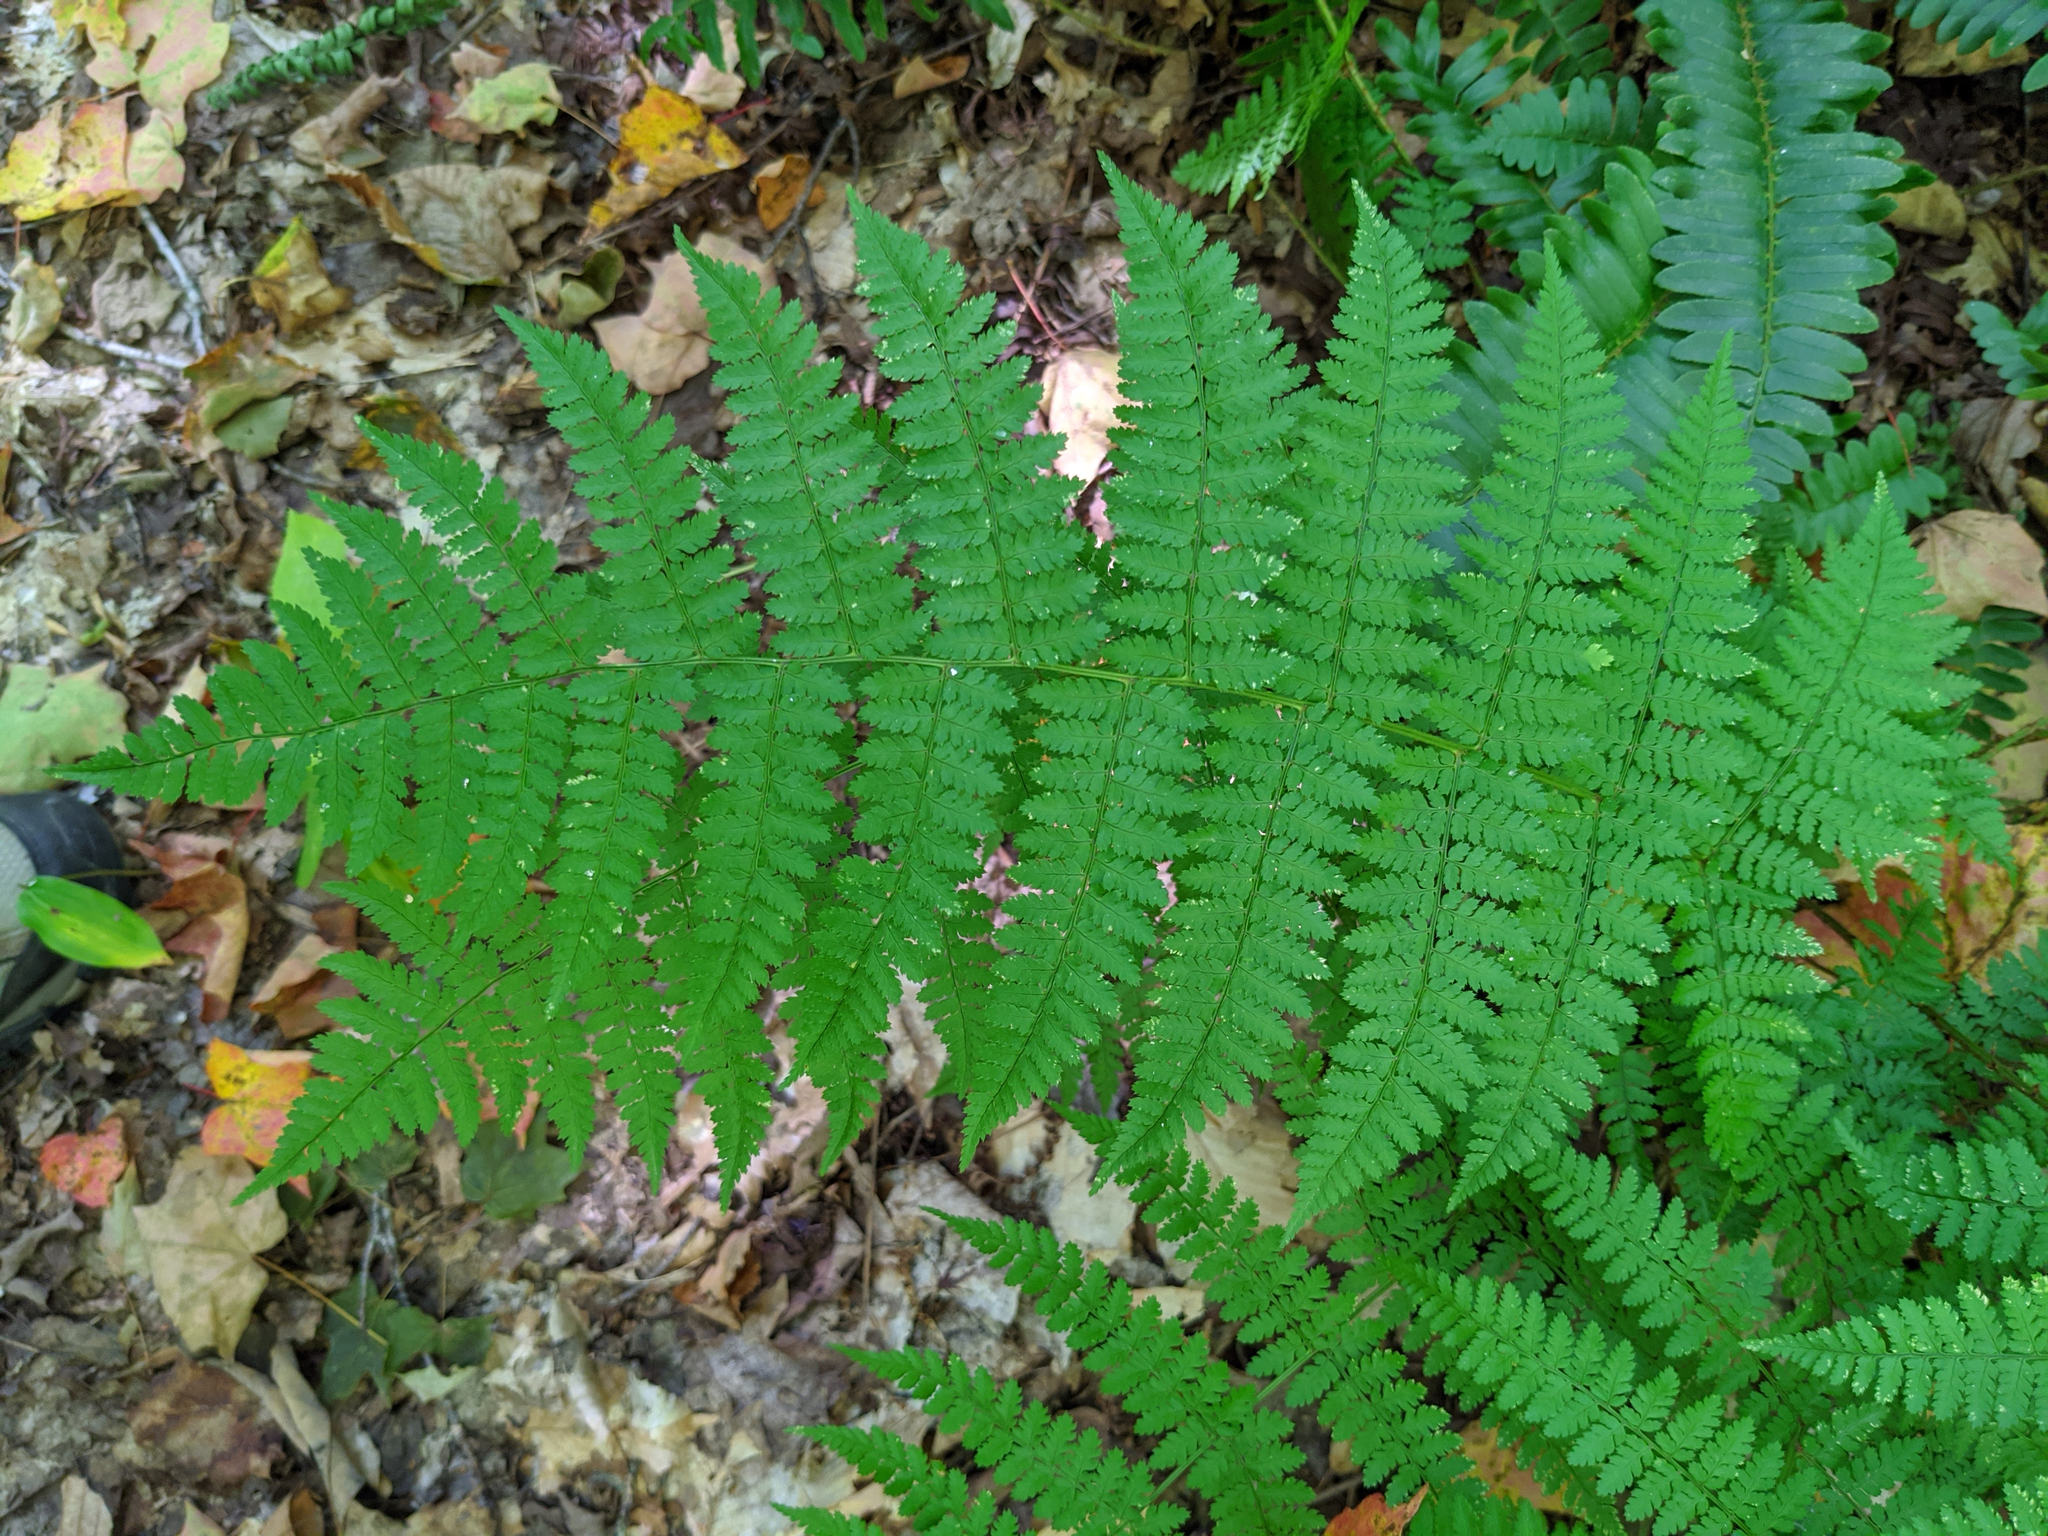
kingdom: Plantae
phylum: Tracheophyta
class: Polypodiopsida
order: Polypodiales
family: Dryopteridaceae
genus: Dryopteris
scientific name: Dryopteris intermedia
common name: Evergreen wood fern
